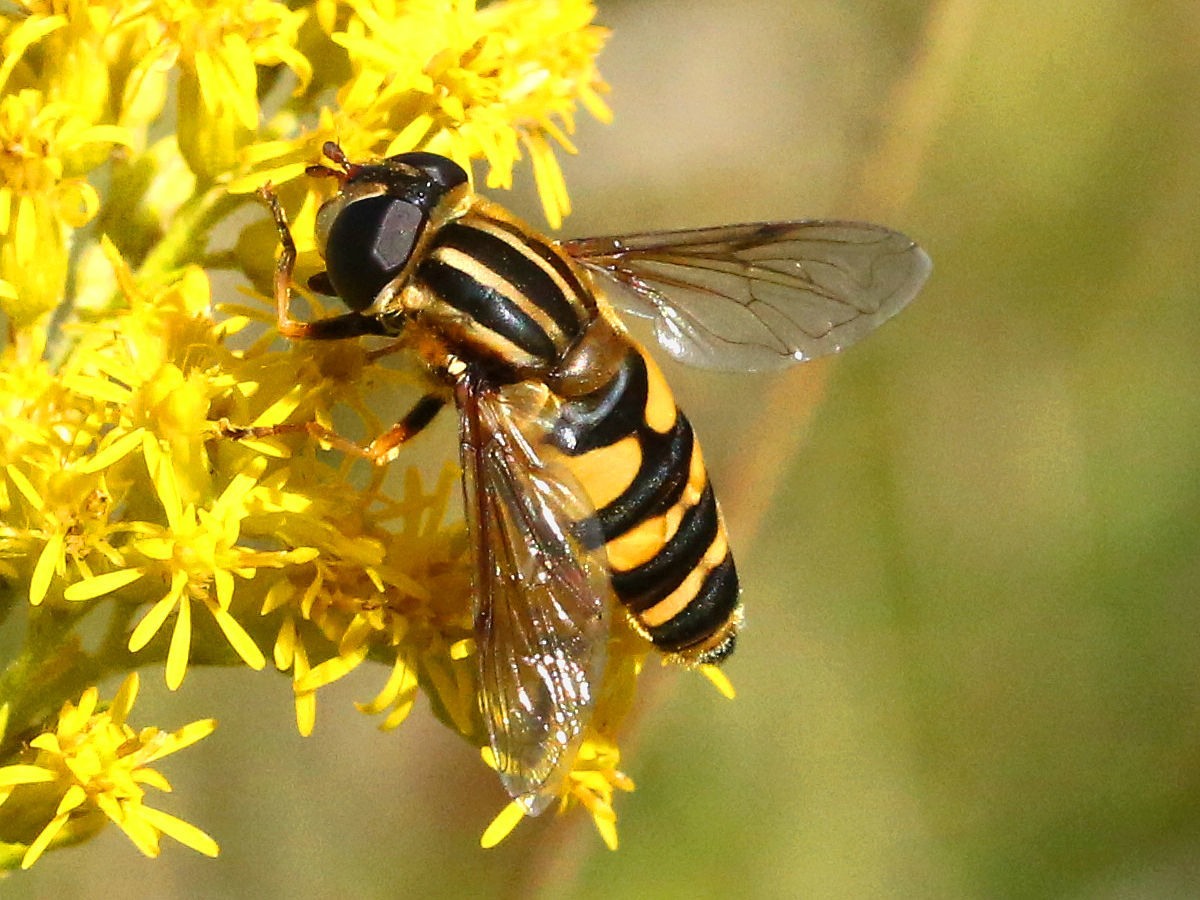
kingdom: Animalia
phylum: Arthropoda
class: Insecta
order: Diptera
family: Syrphidae
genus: Helophilus
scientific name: Helophilus fasciatus
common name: Narrow-headed marsh fly
